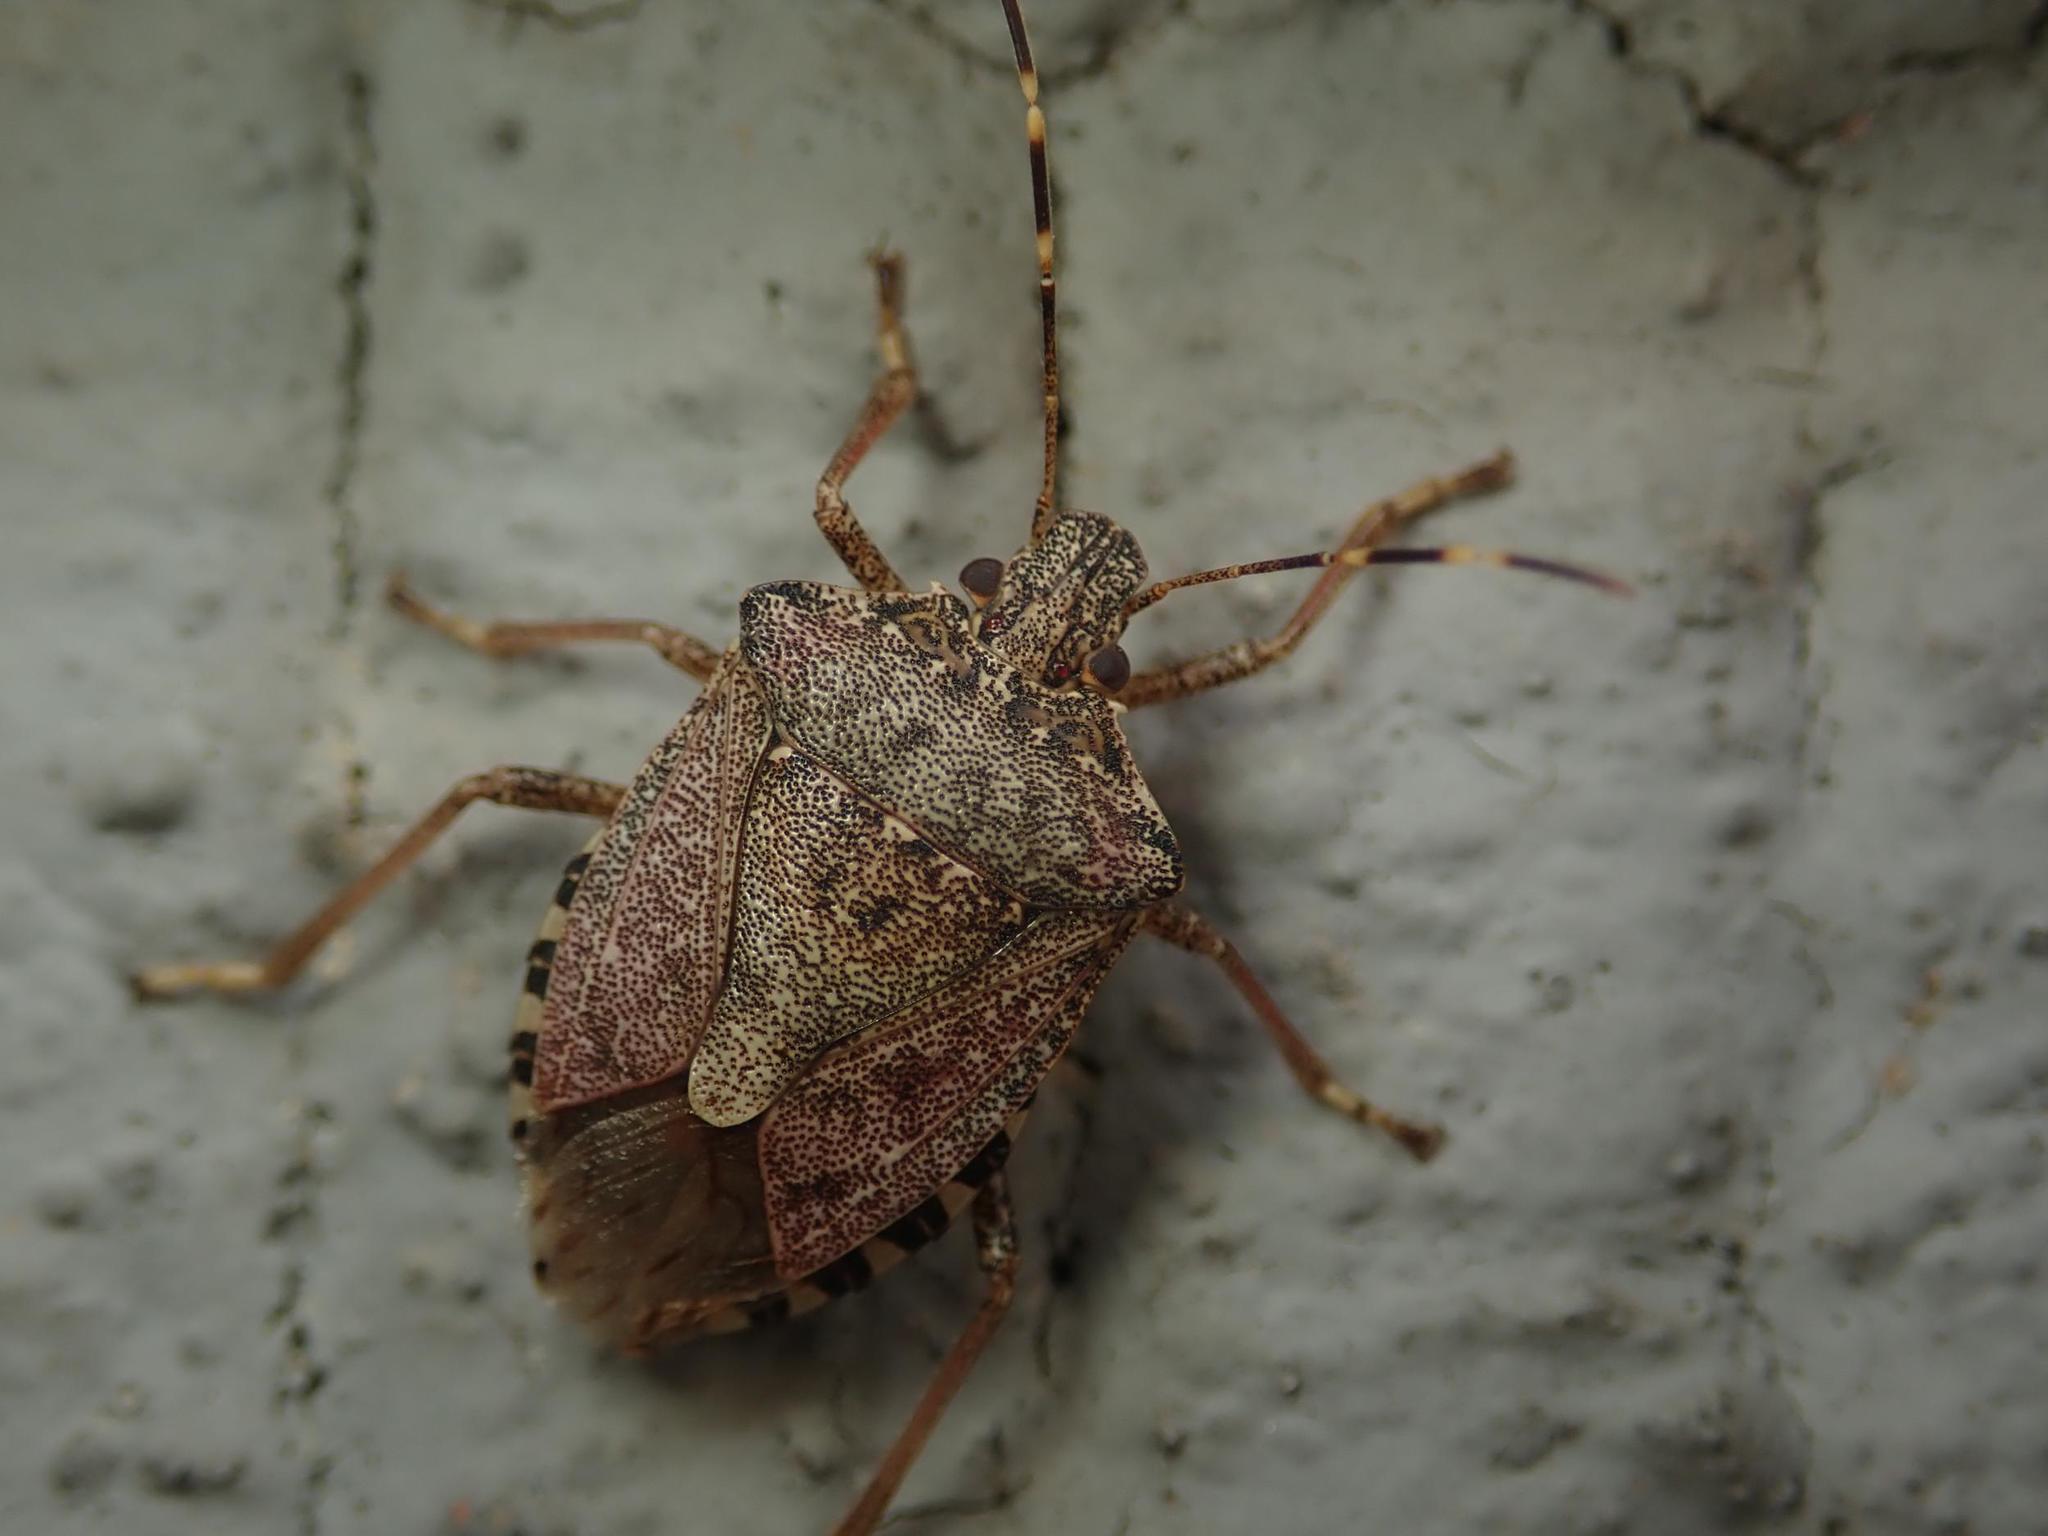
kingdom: Animalia
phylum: Arthropoda
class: Insecta
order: Hemiptera
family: Pentatomidae
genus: Halyomorpha
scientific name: Halyomorpha halys
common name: Brown marmorated stink bug
